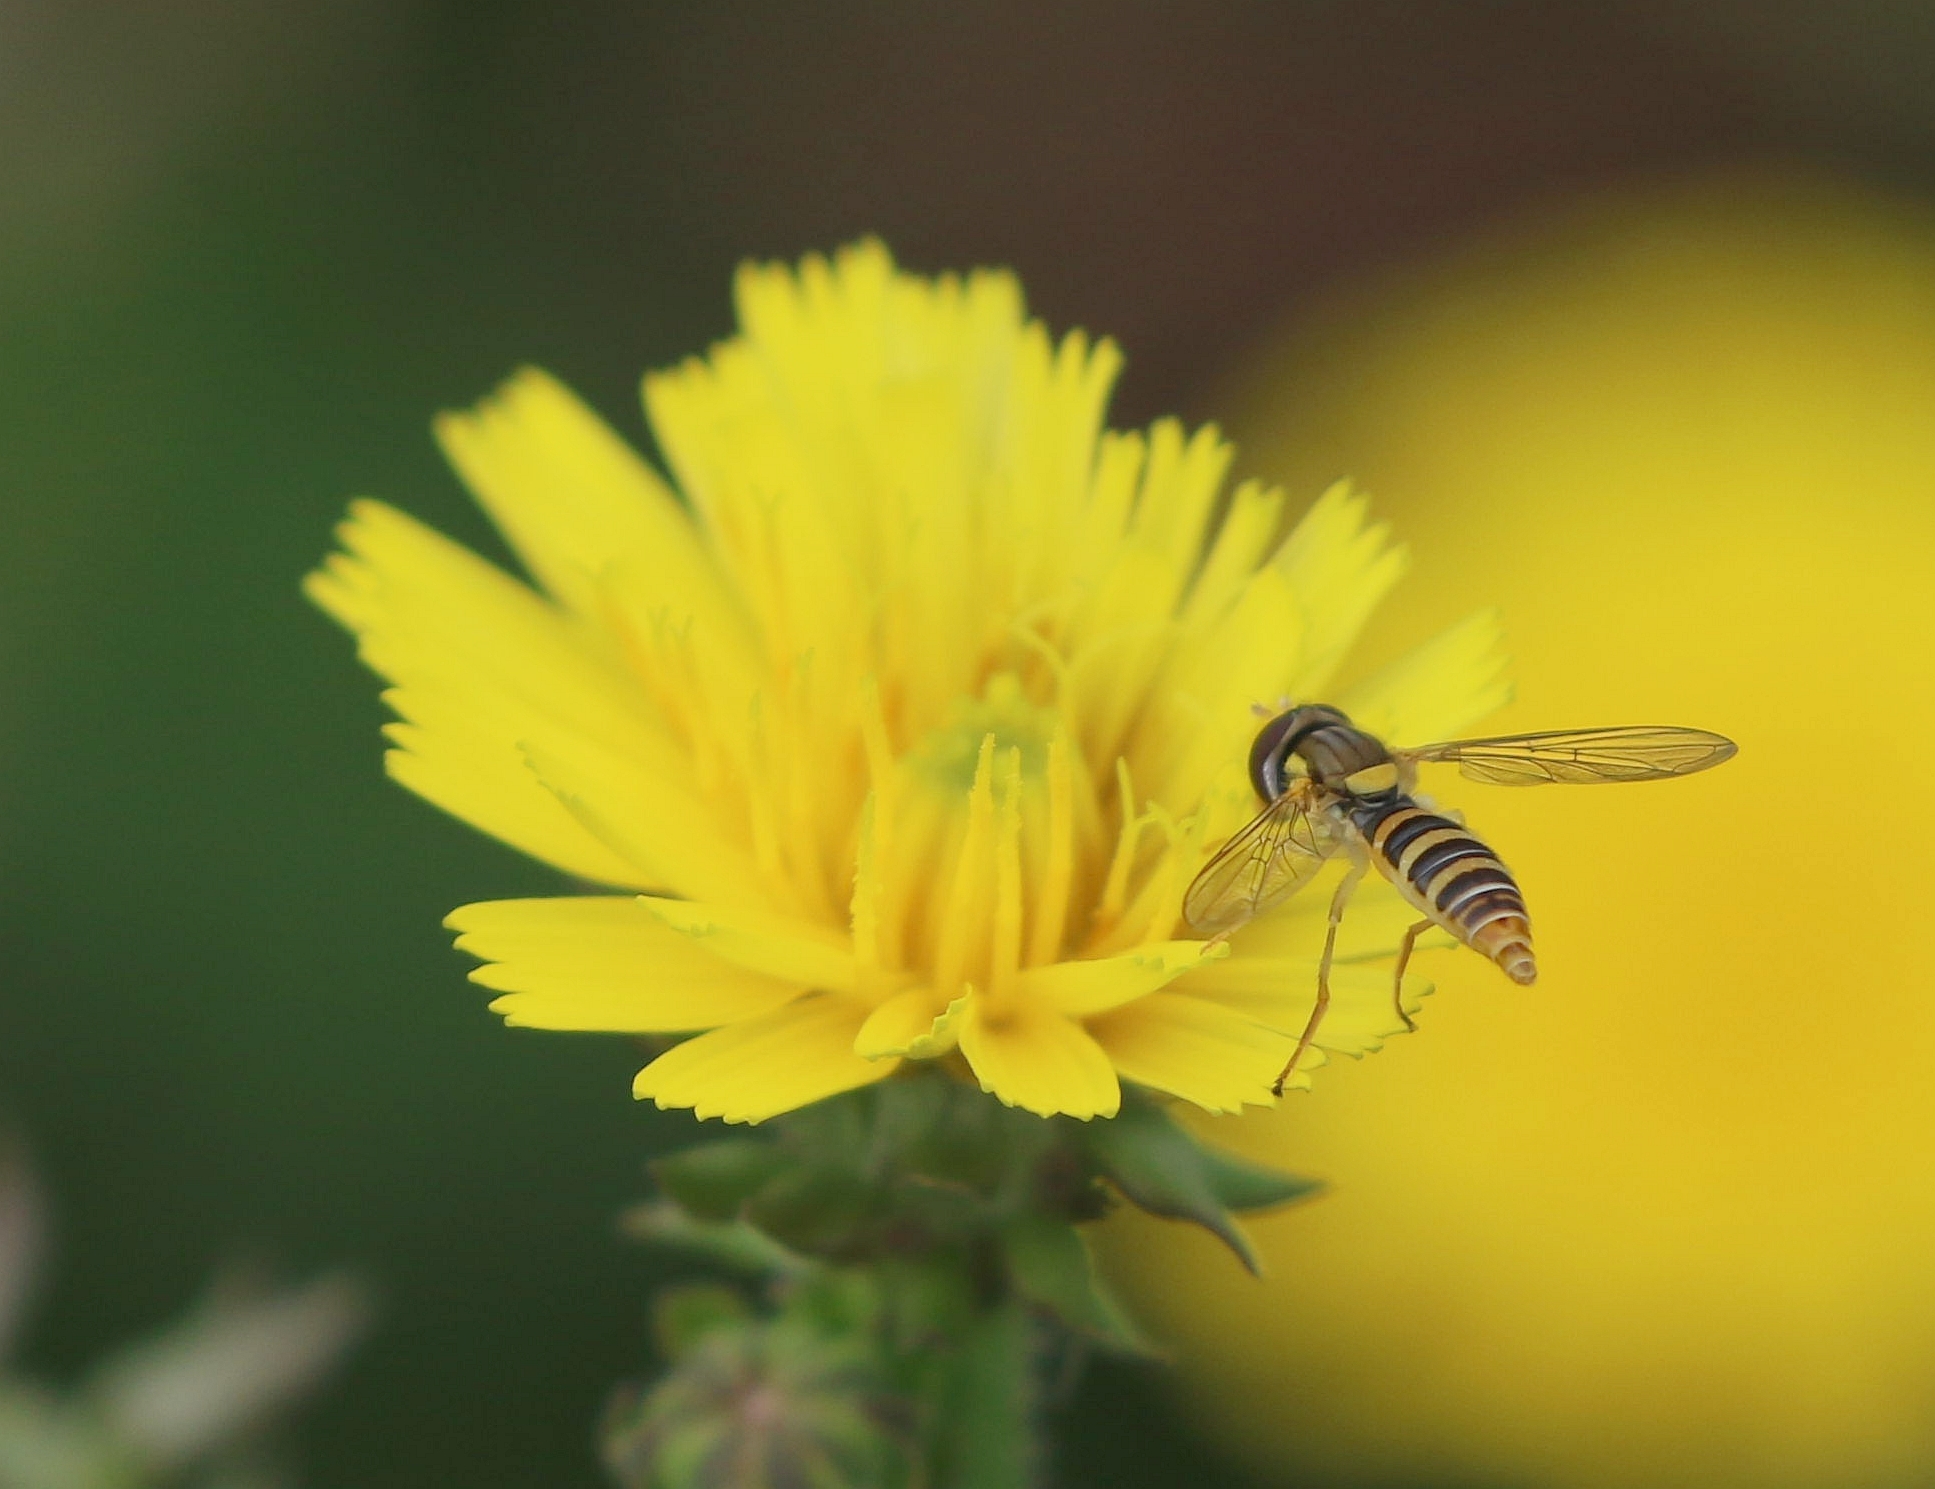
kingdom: Animalia
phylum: Arthropoda
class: Insecta
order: Diptera
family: Syrphidae
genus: Sphaerophoria
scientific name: Sphaerophoria contigua
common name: Tufted globetail
